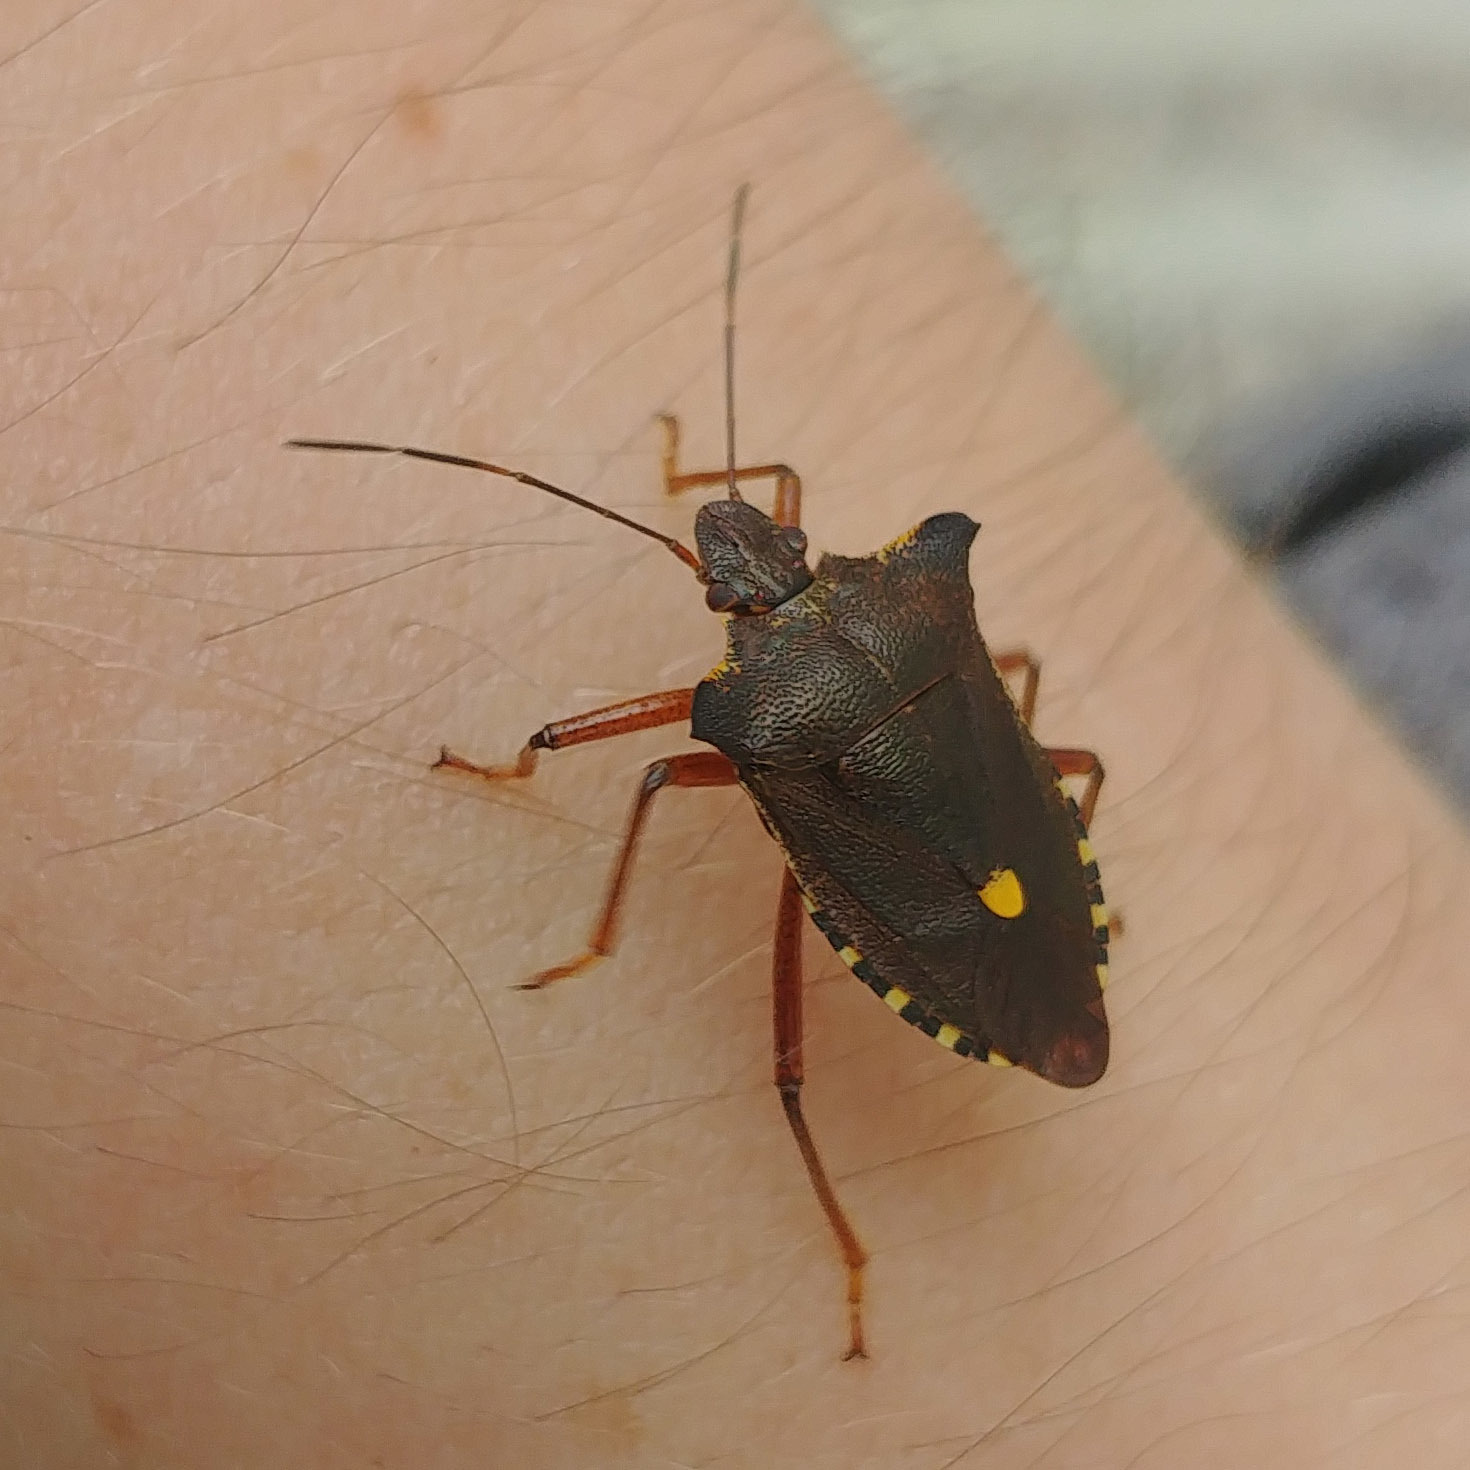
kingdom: Animalia
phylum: Arthropoda
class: Insecta
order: Hemiptera
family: Pentatomidae
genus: Pentatoma
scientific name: Pentatoma rufipes
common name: Forest bug
